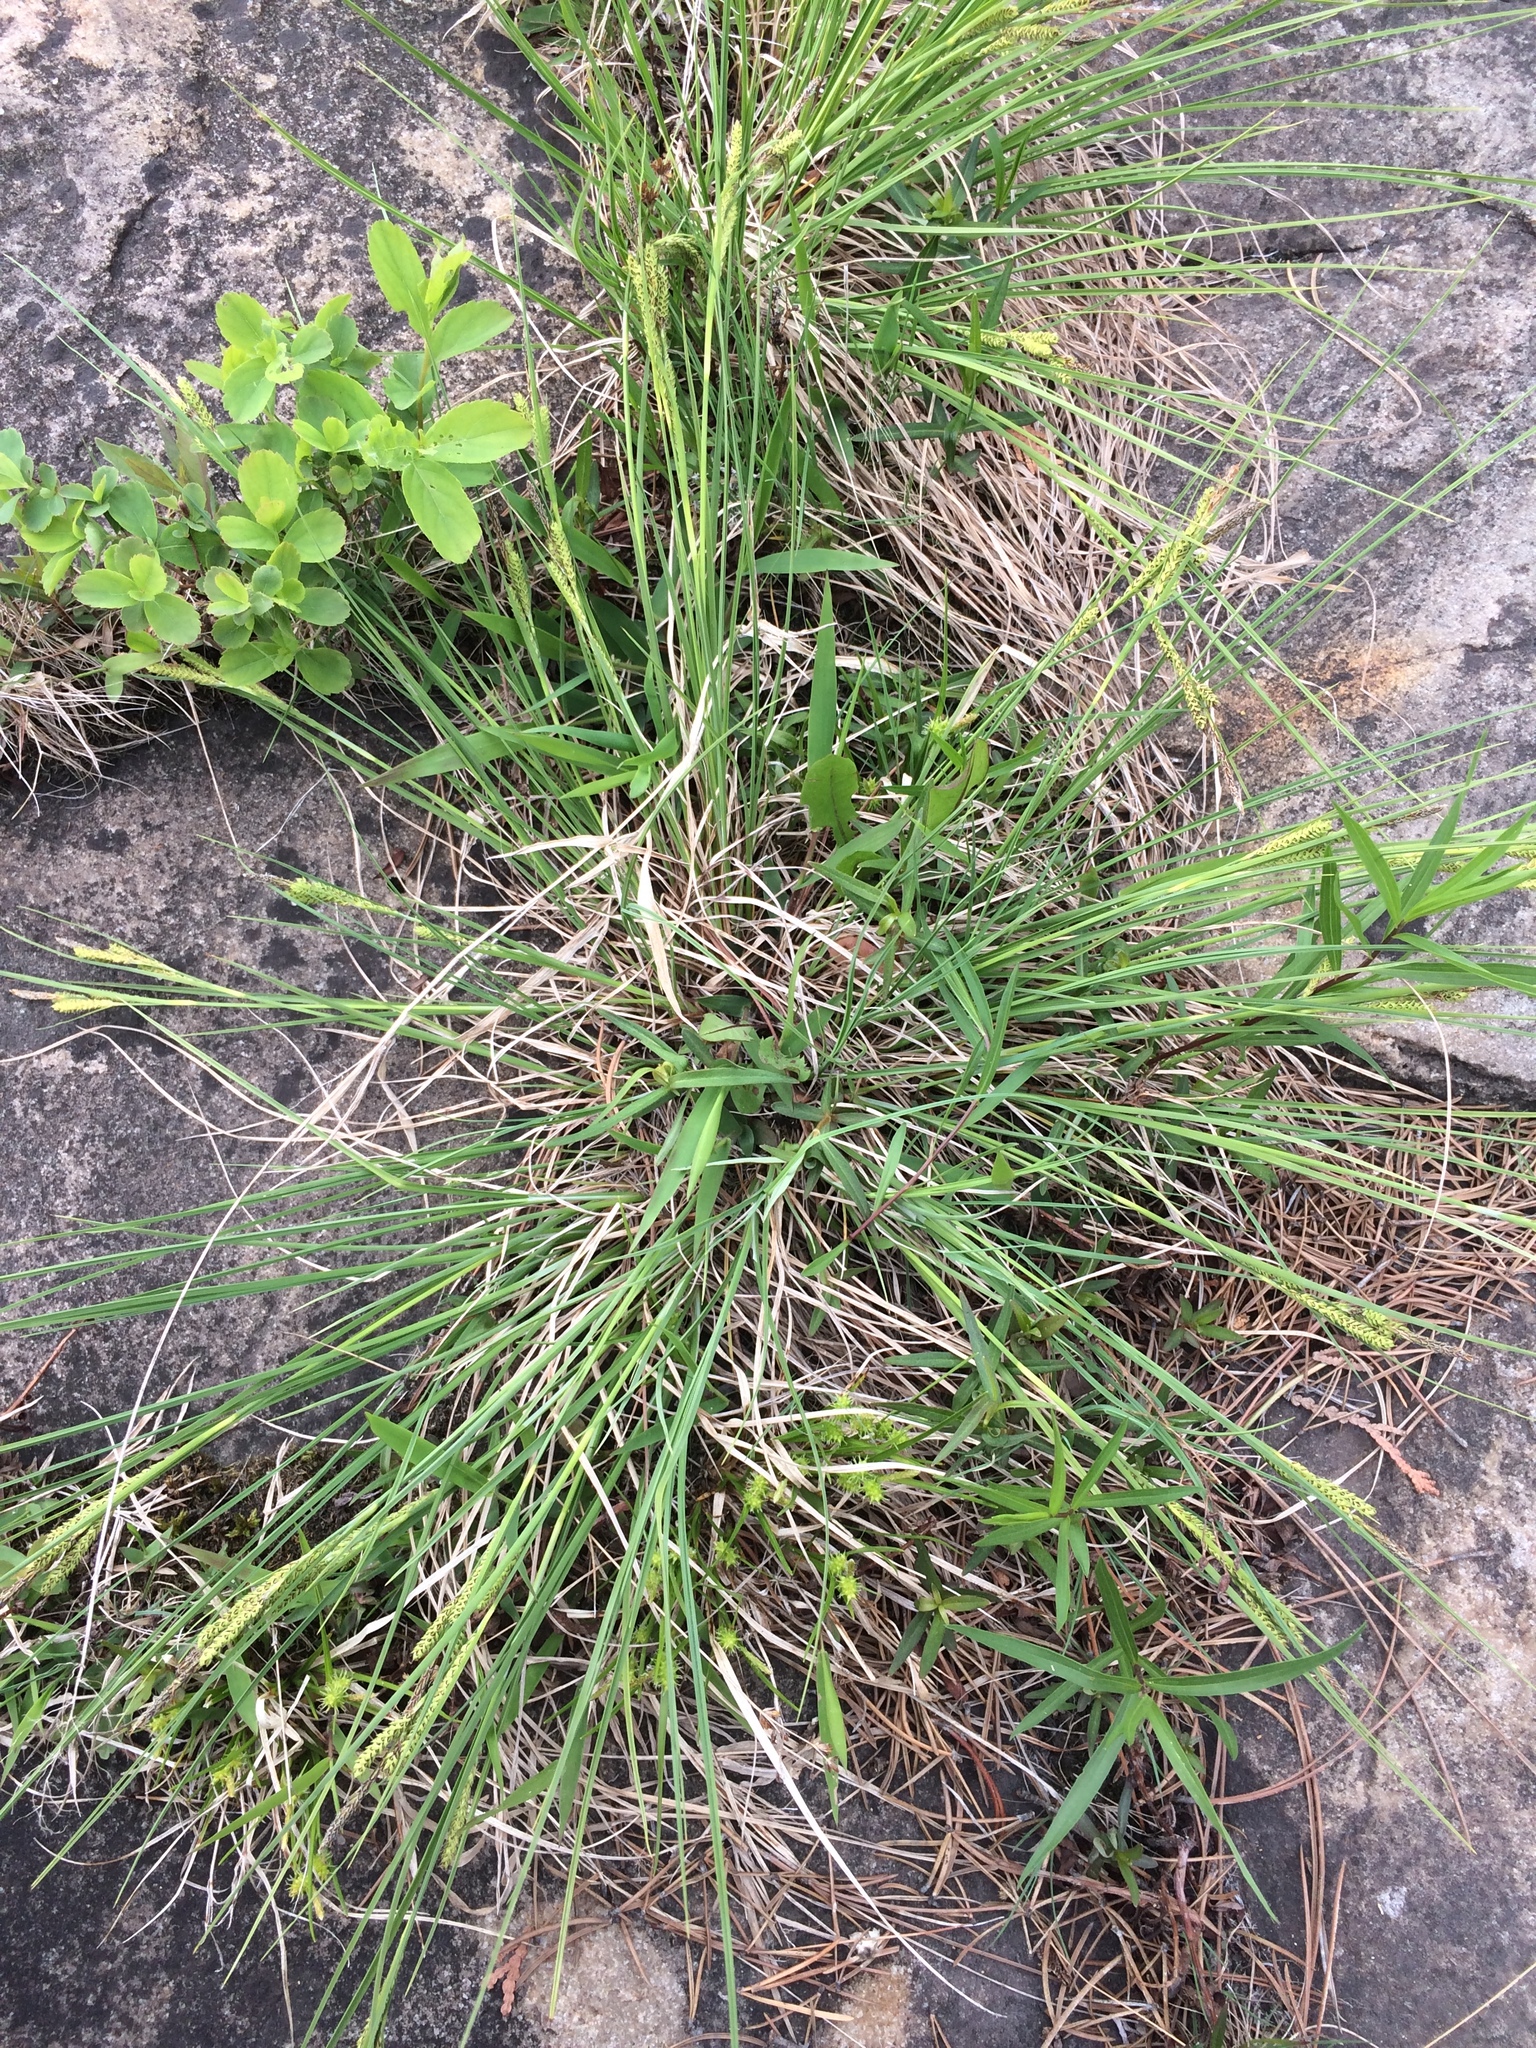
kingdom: Plantae
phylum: Tracheophyta
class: Liliopsida
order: Poales
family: Cyperaceae
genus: Carex
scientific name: Carex lenticularis
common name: Lakeshore sedge
